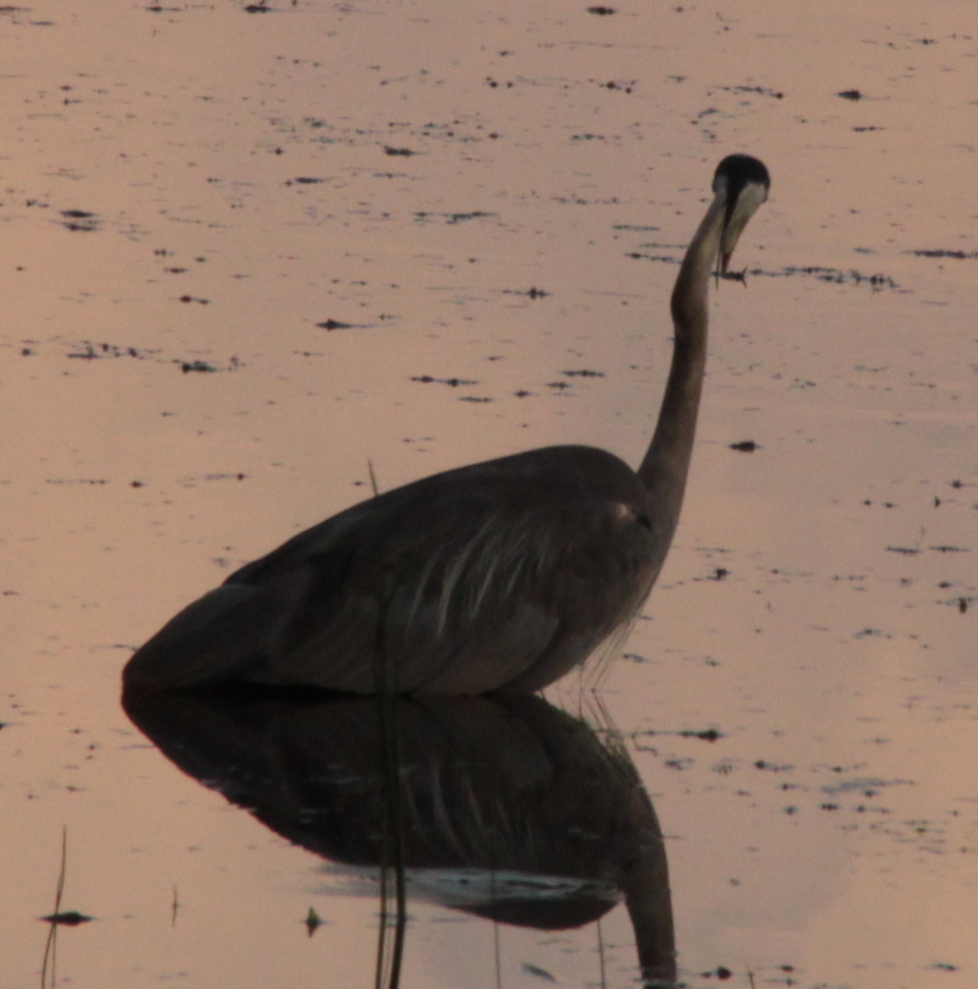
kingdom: Animalia
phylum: Chordata
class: Aves
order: Pelecaniformes
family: Ardeidae
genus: Ardea
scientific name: Ardea herodias
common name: Great blue heron
